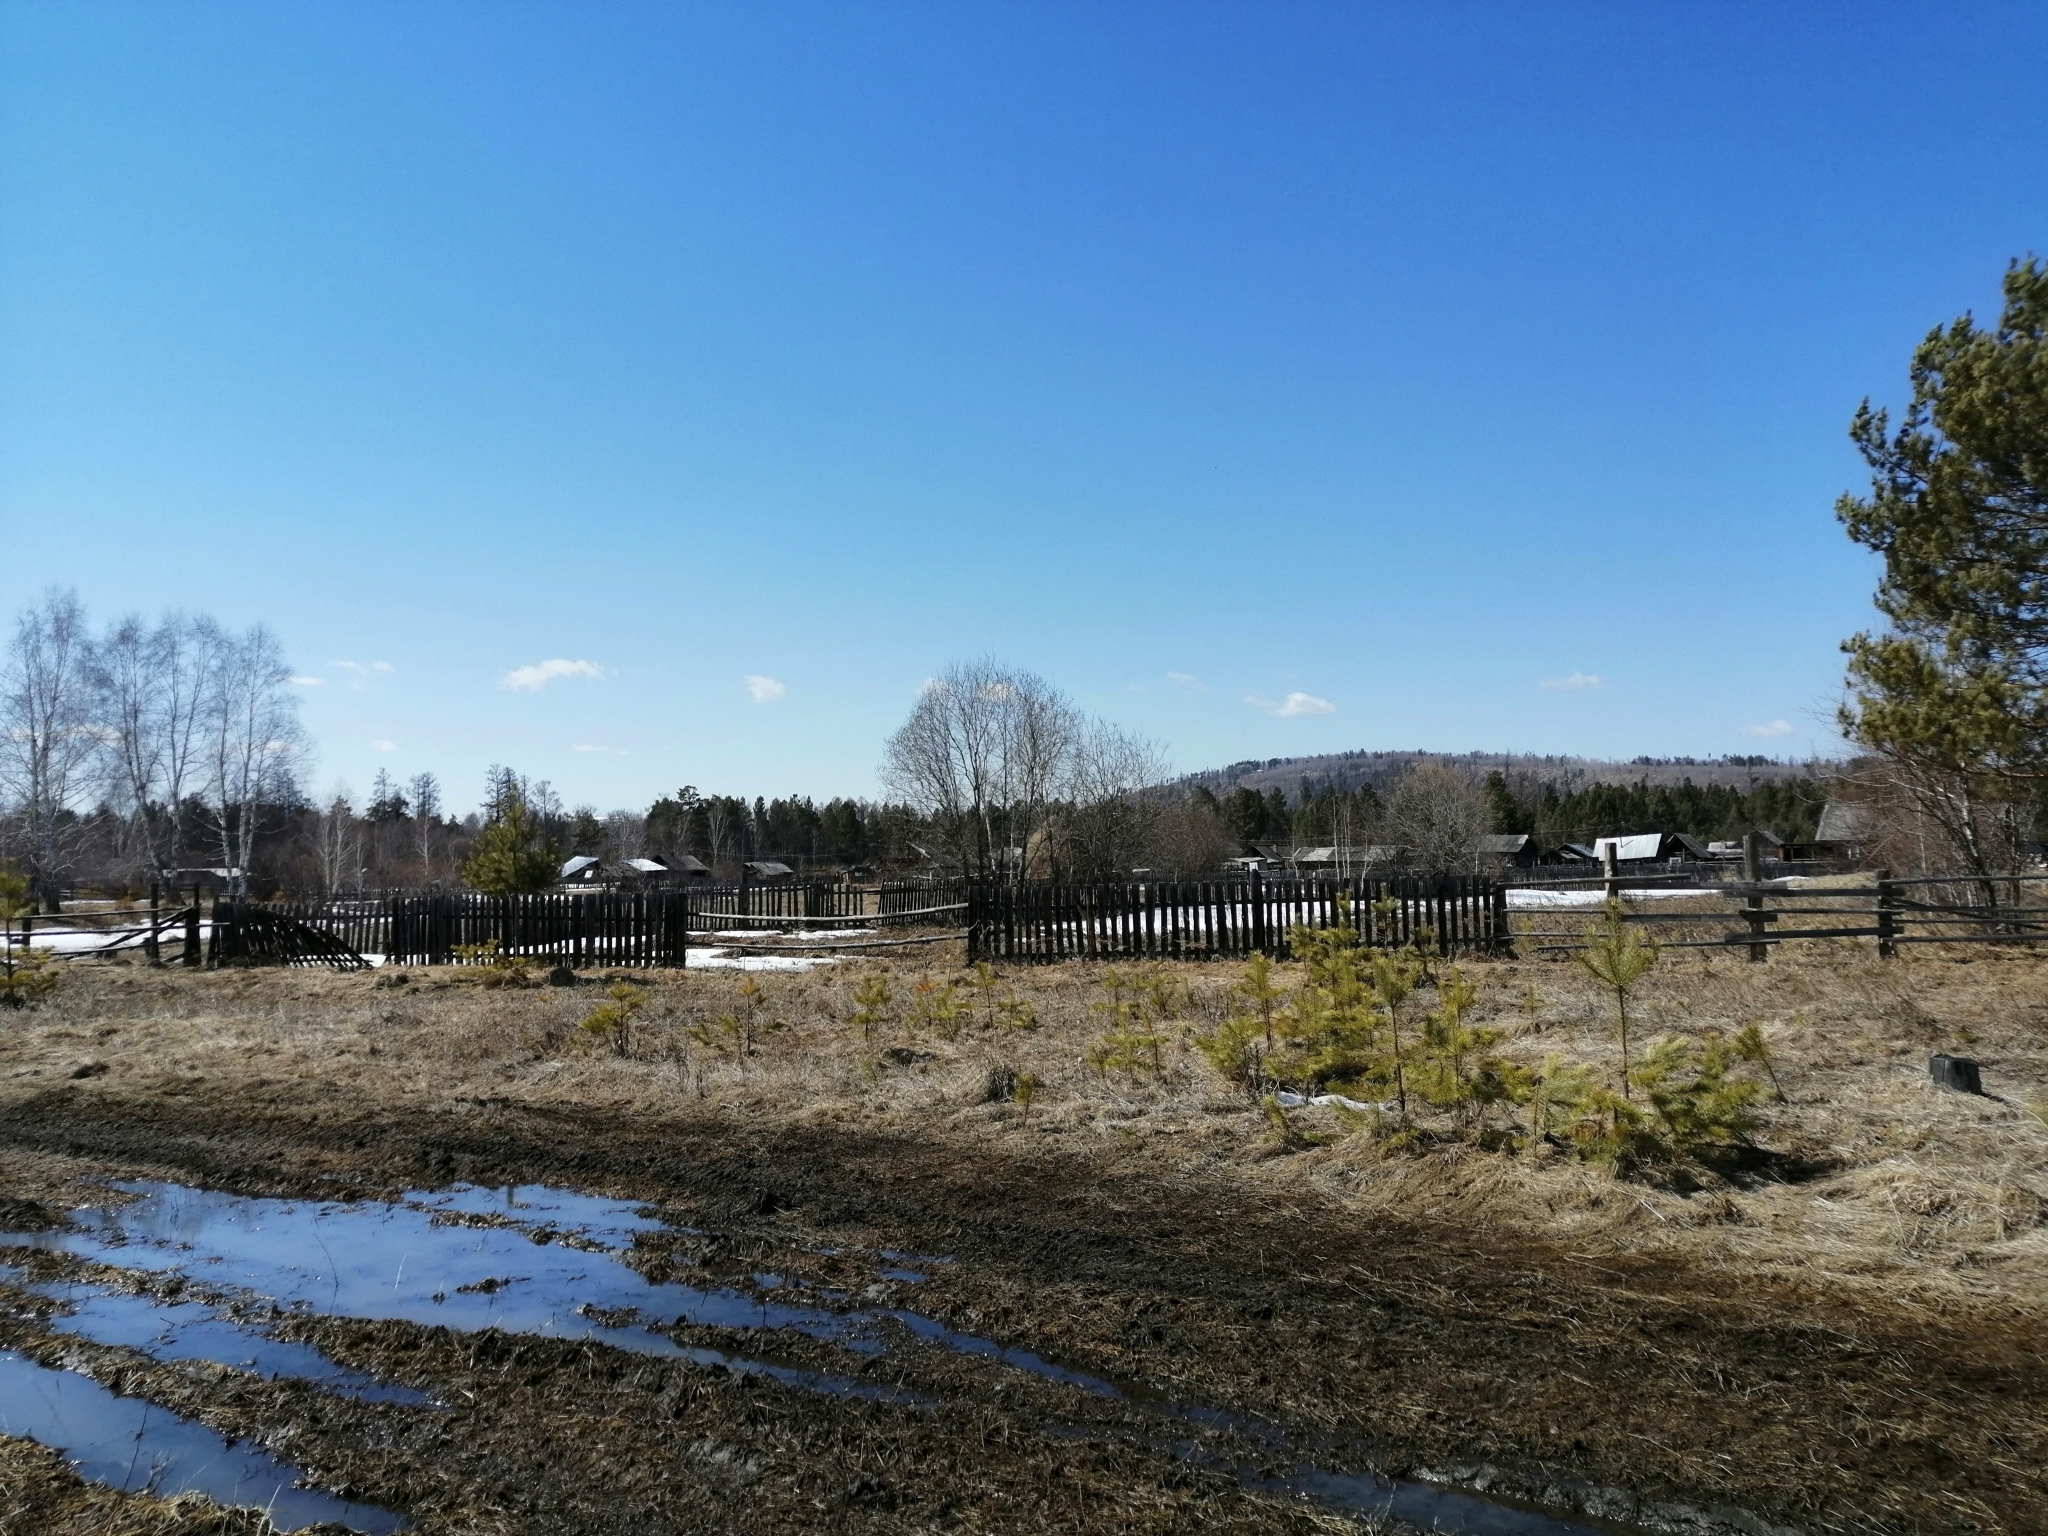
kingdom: Plantae
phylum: Tracheophyta
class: Pinopsida
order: Pinales
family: Pinaceae
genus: Pinus
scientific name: Pinus sylvestris
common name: Scots pine
